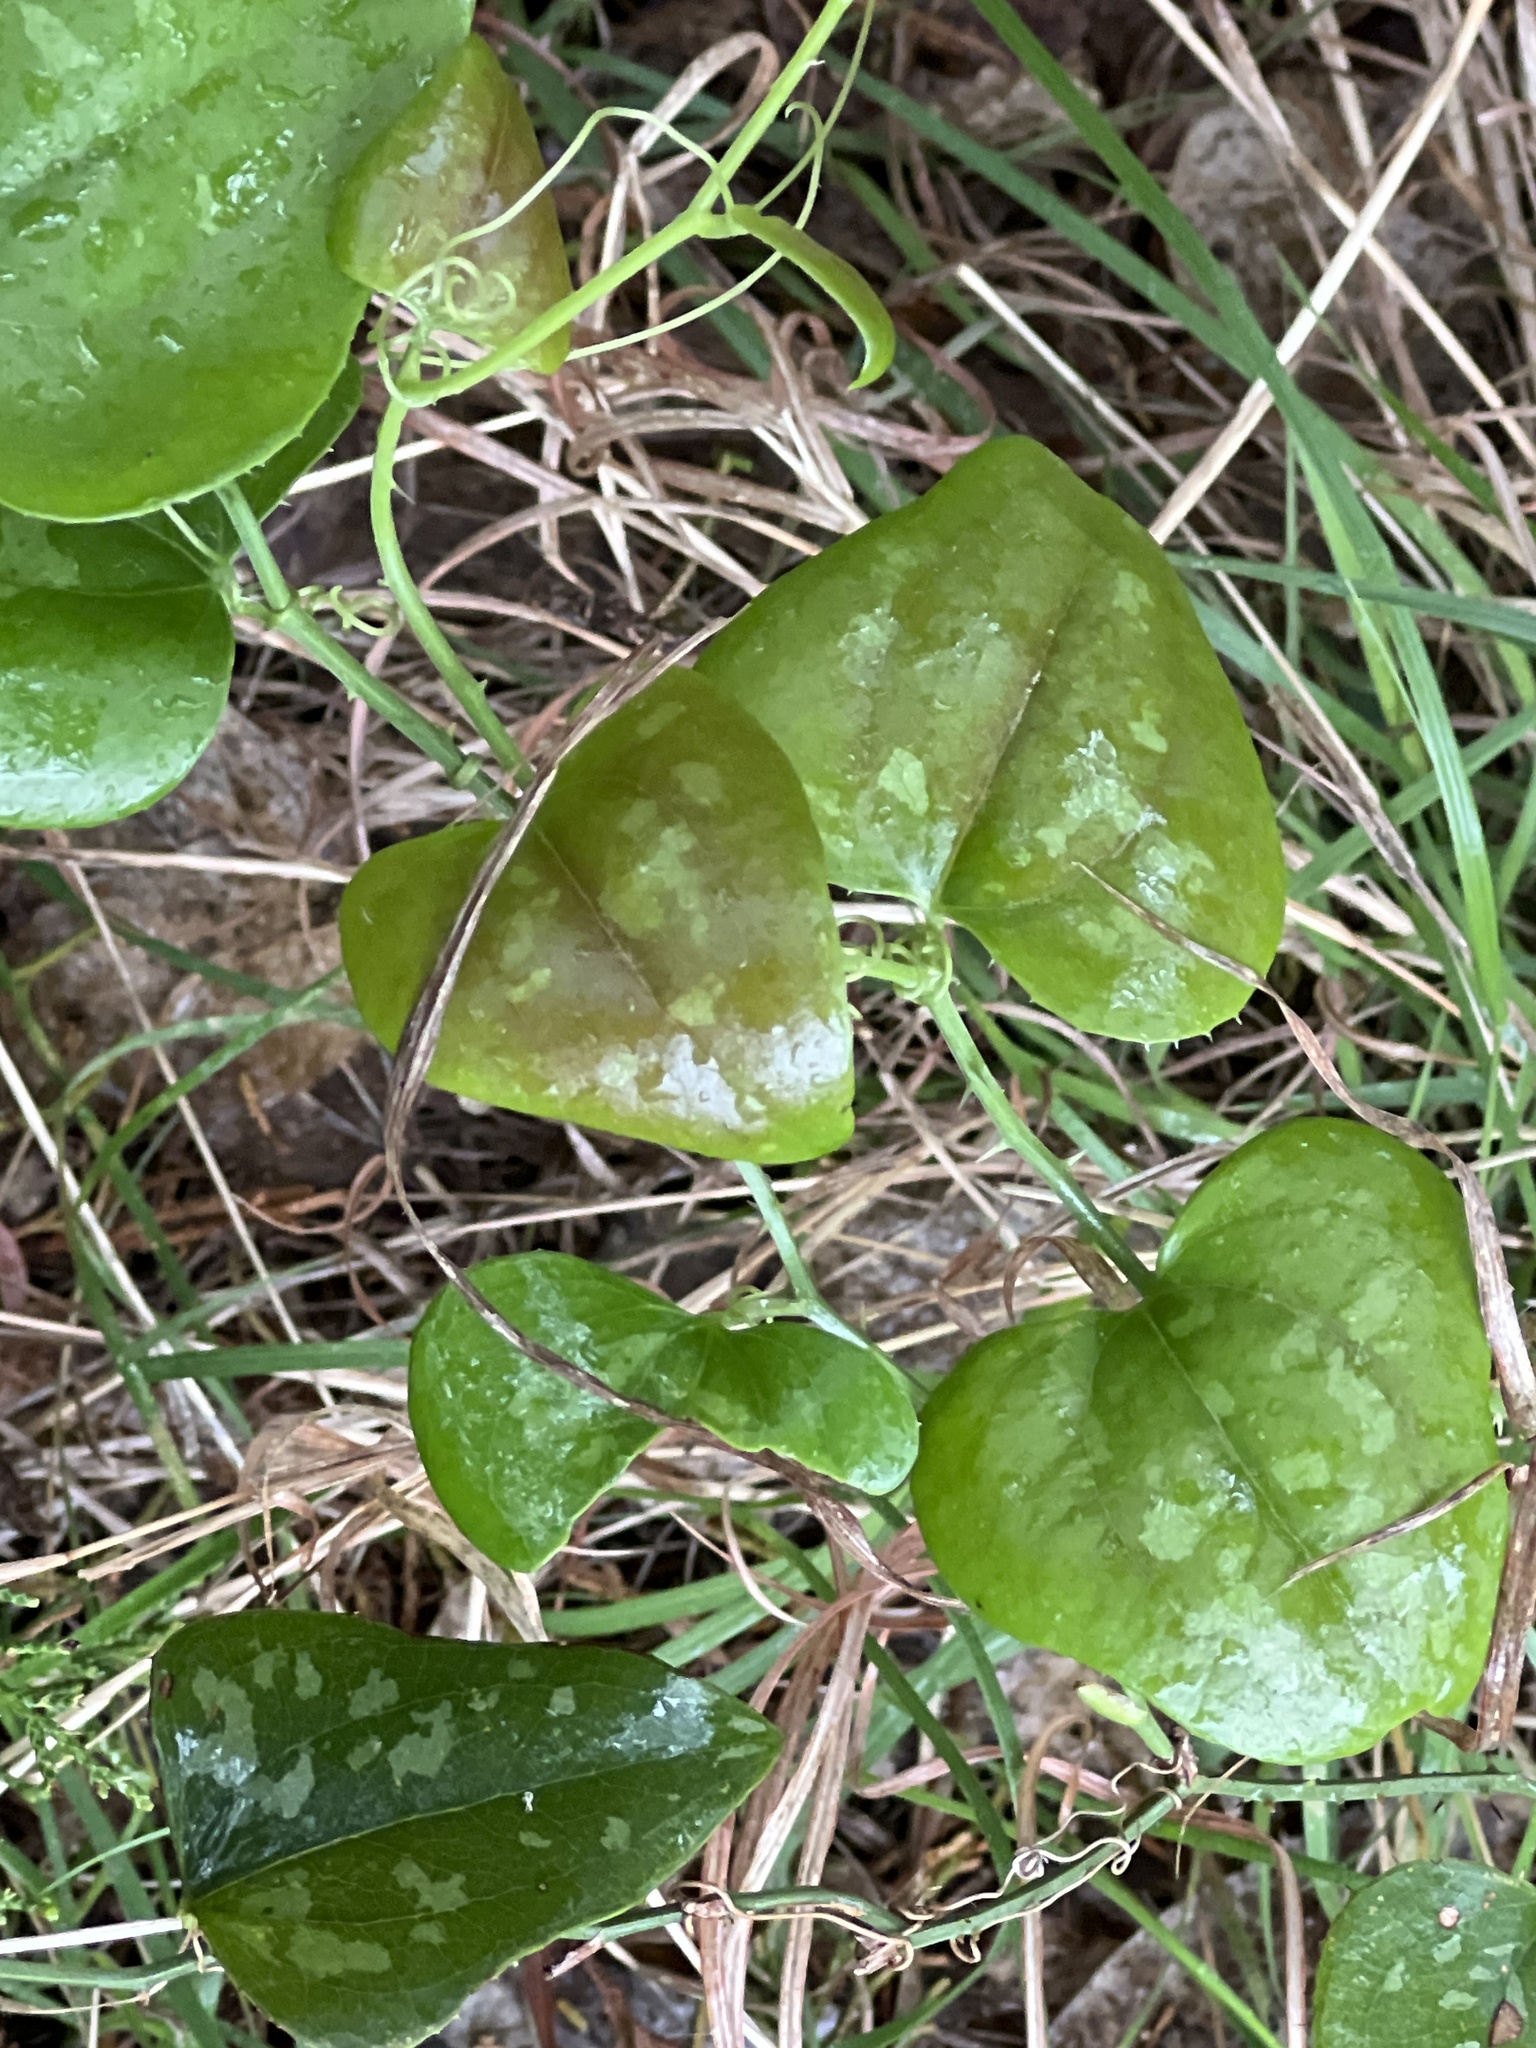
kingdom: Plantae
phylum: Tracheophyta
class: Liliopsida
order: Liliales
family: Smilacaceae
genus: Smilax
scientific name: Smilax bona-nox
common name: Catbrier
